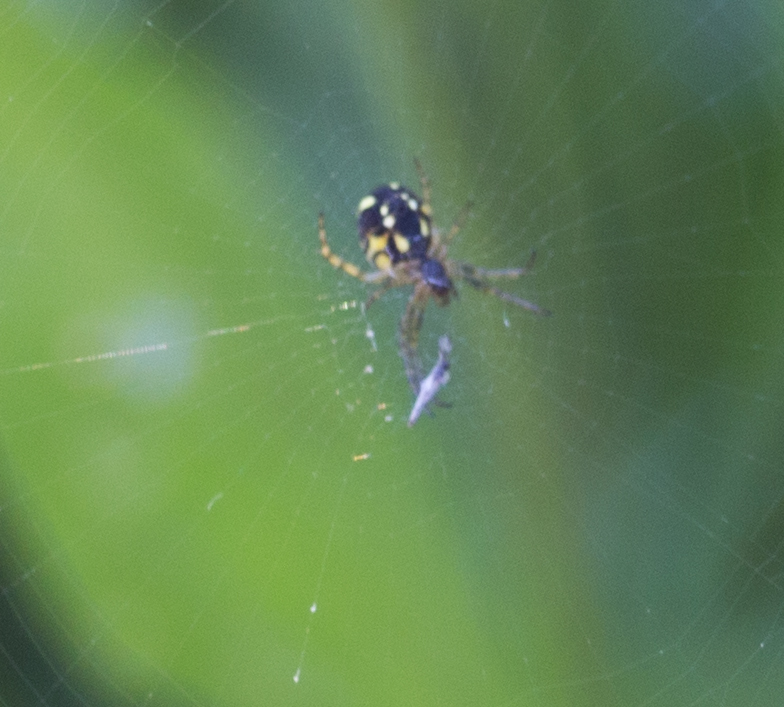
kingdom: Animalia
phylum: Arthropoda
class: Arachnida
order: Araneae
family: Araneidae
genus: Mangora
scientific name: Mangora acalypha
